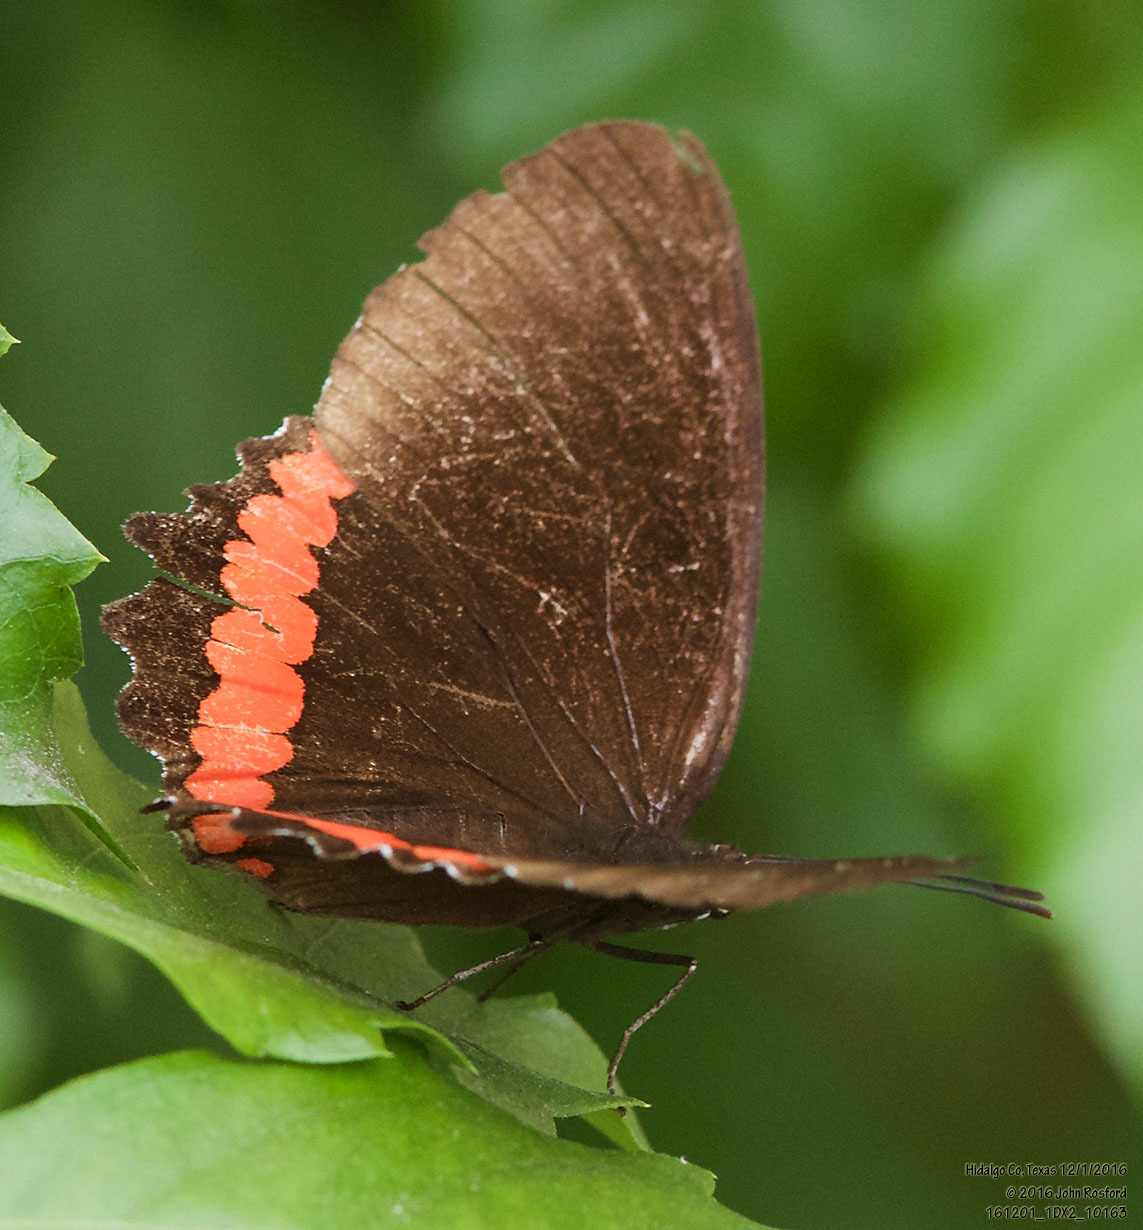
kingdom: Animalia
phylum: Arthropoda
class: Insecta
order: Lepidoptera
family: Nymphalidae
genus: Biblis
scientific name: Biblis aganisa
